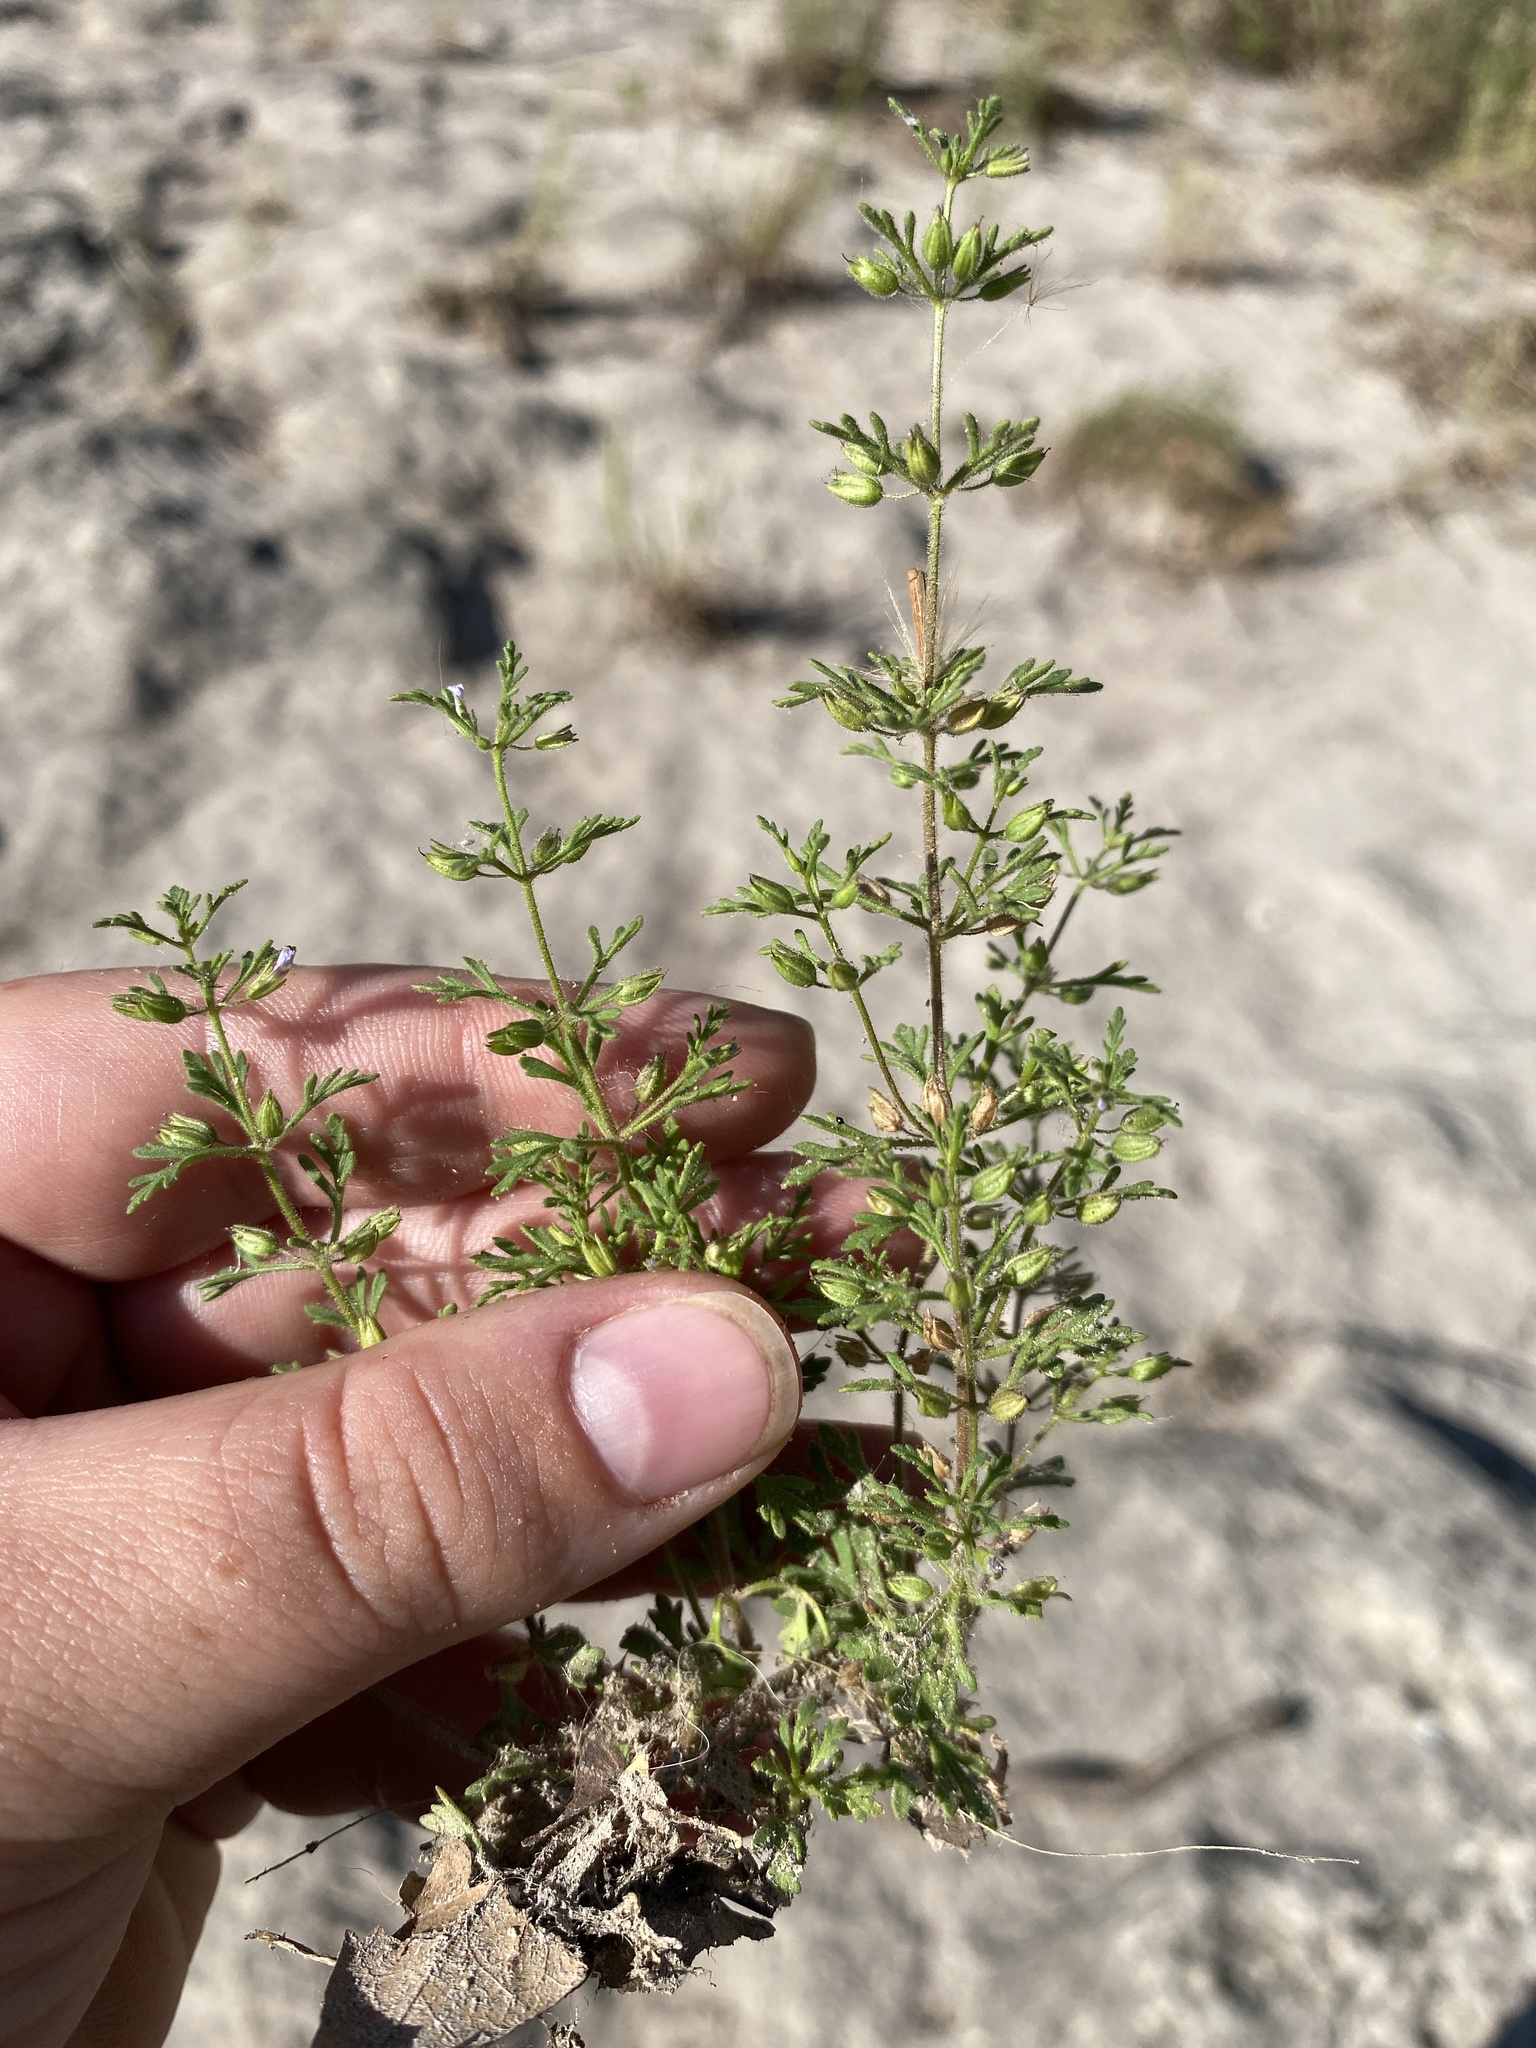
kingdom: Plantae
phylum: Tracheophyta
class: Magnoliopsida
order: Lamiales
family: Plantaginaceae
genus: Leucospora
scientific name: Leucospora multifida
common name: Narrow-leaf paleseed
